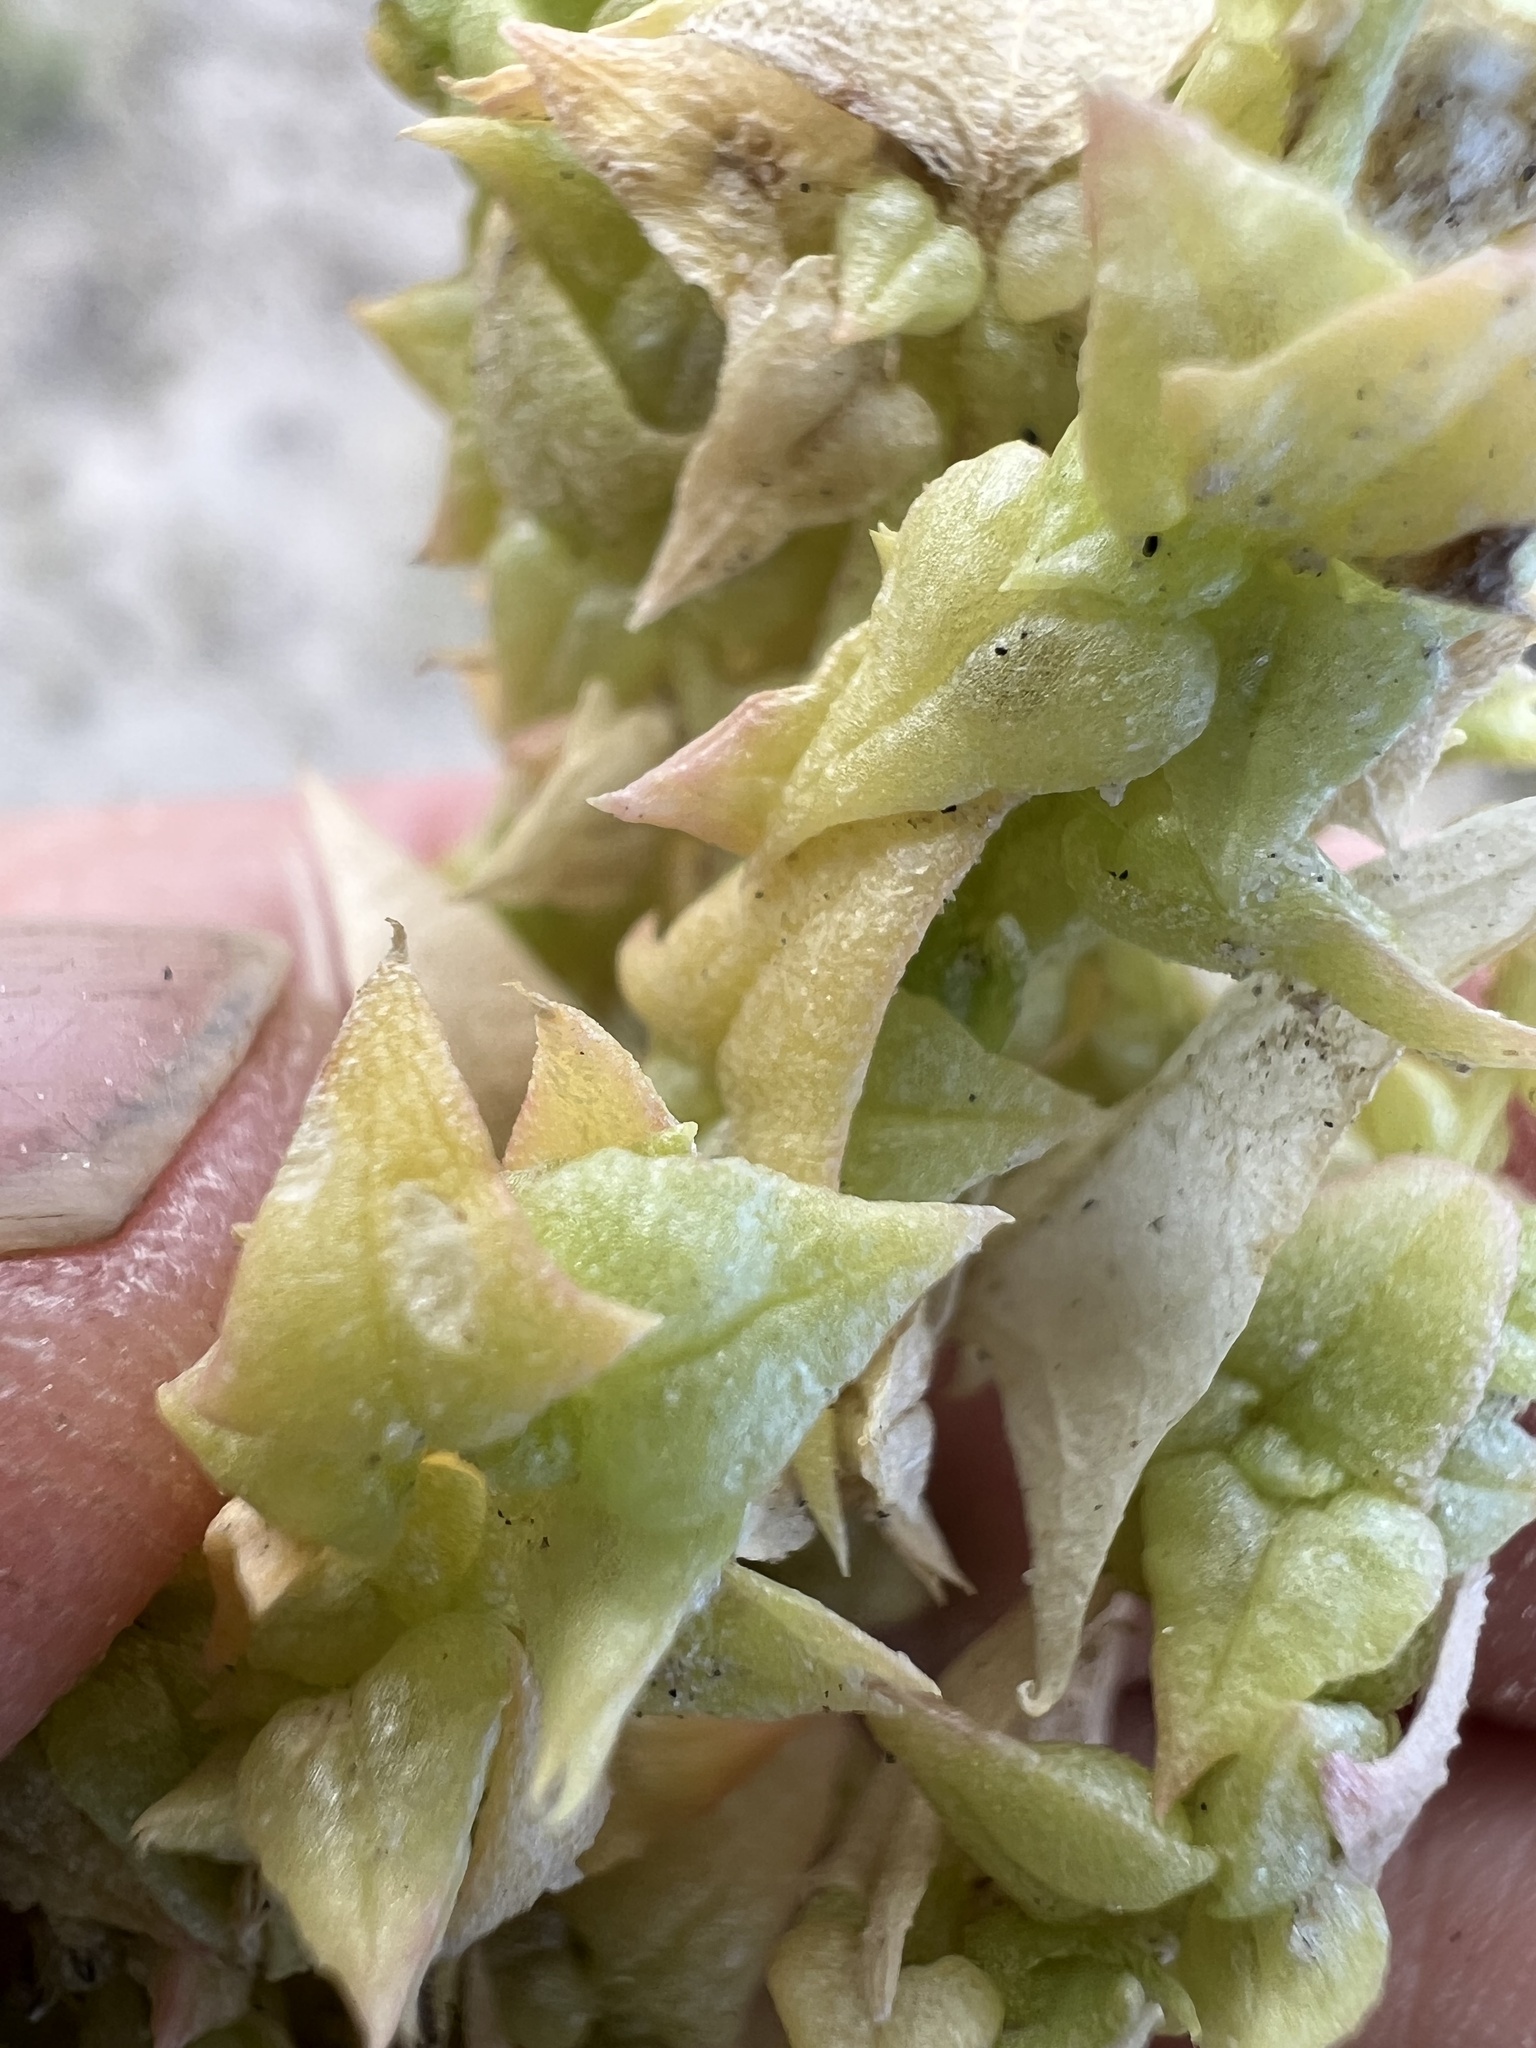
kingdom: Plantae
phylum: Tracheophyta
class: Magnoliopsida
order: Caryophyllales
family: Amaranthaceae
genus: Stutzia
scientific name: Stutzia covillei
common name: Coville's orach
